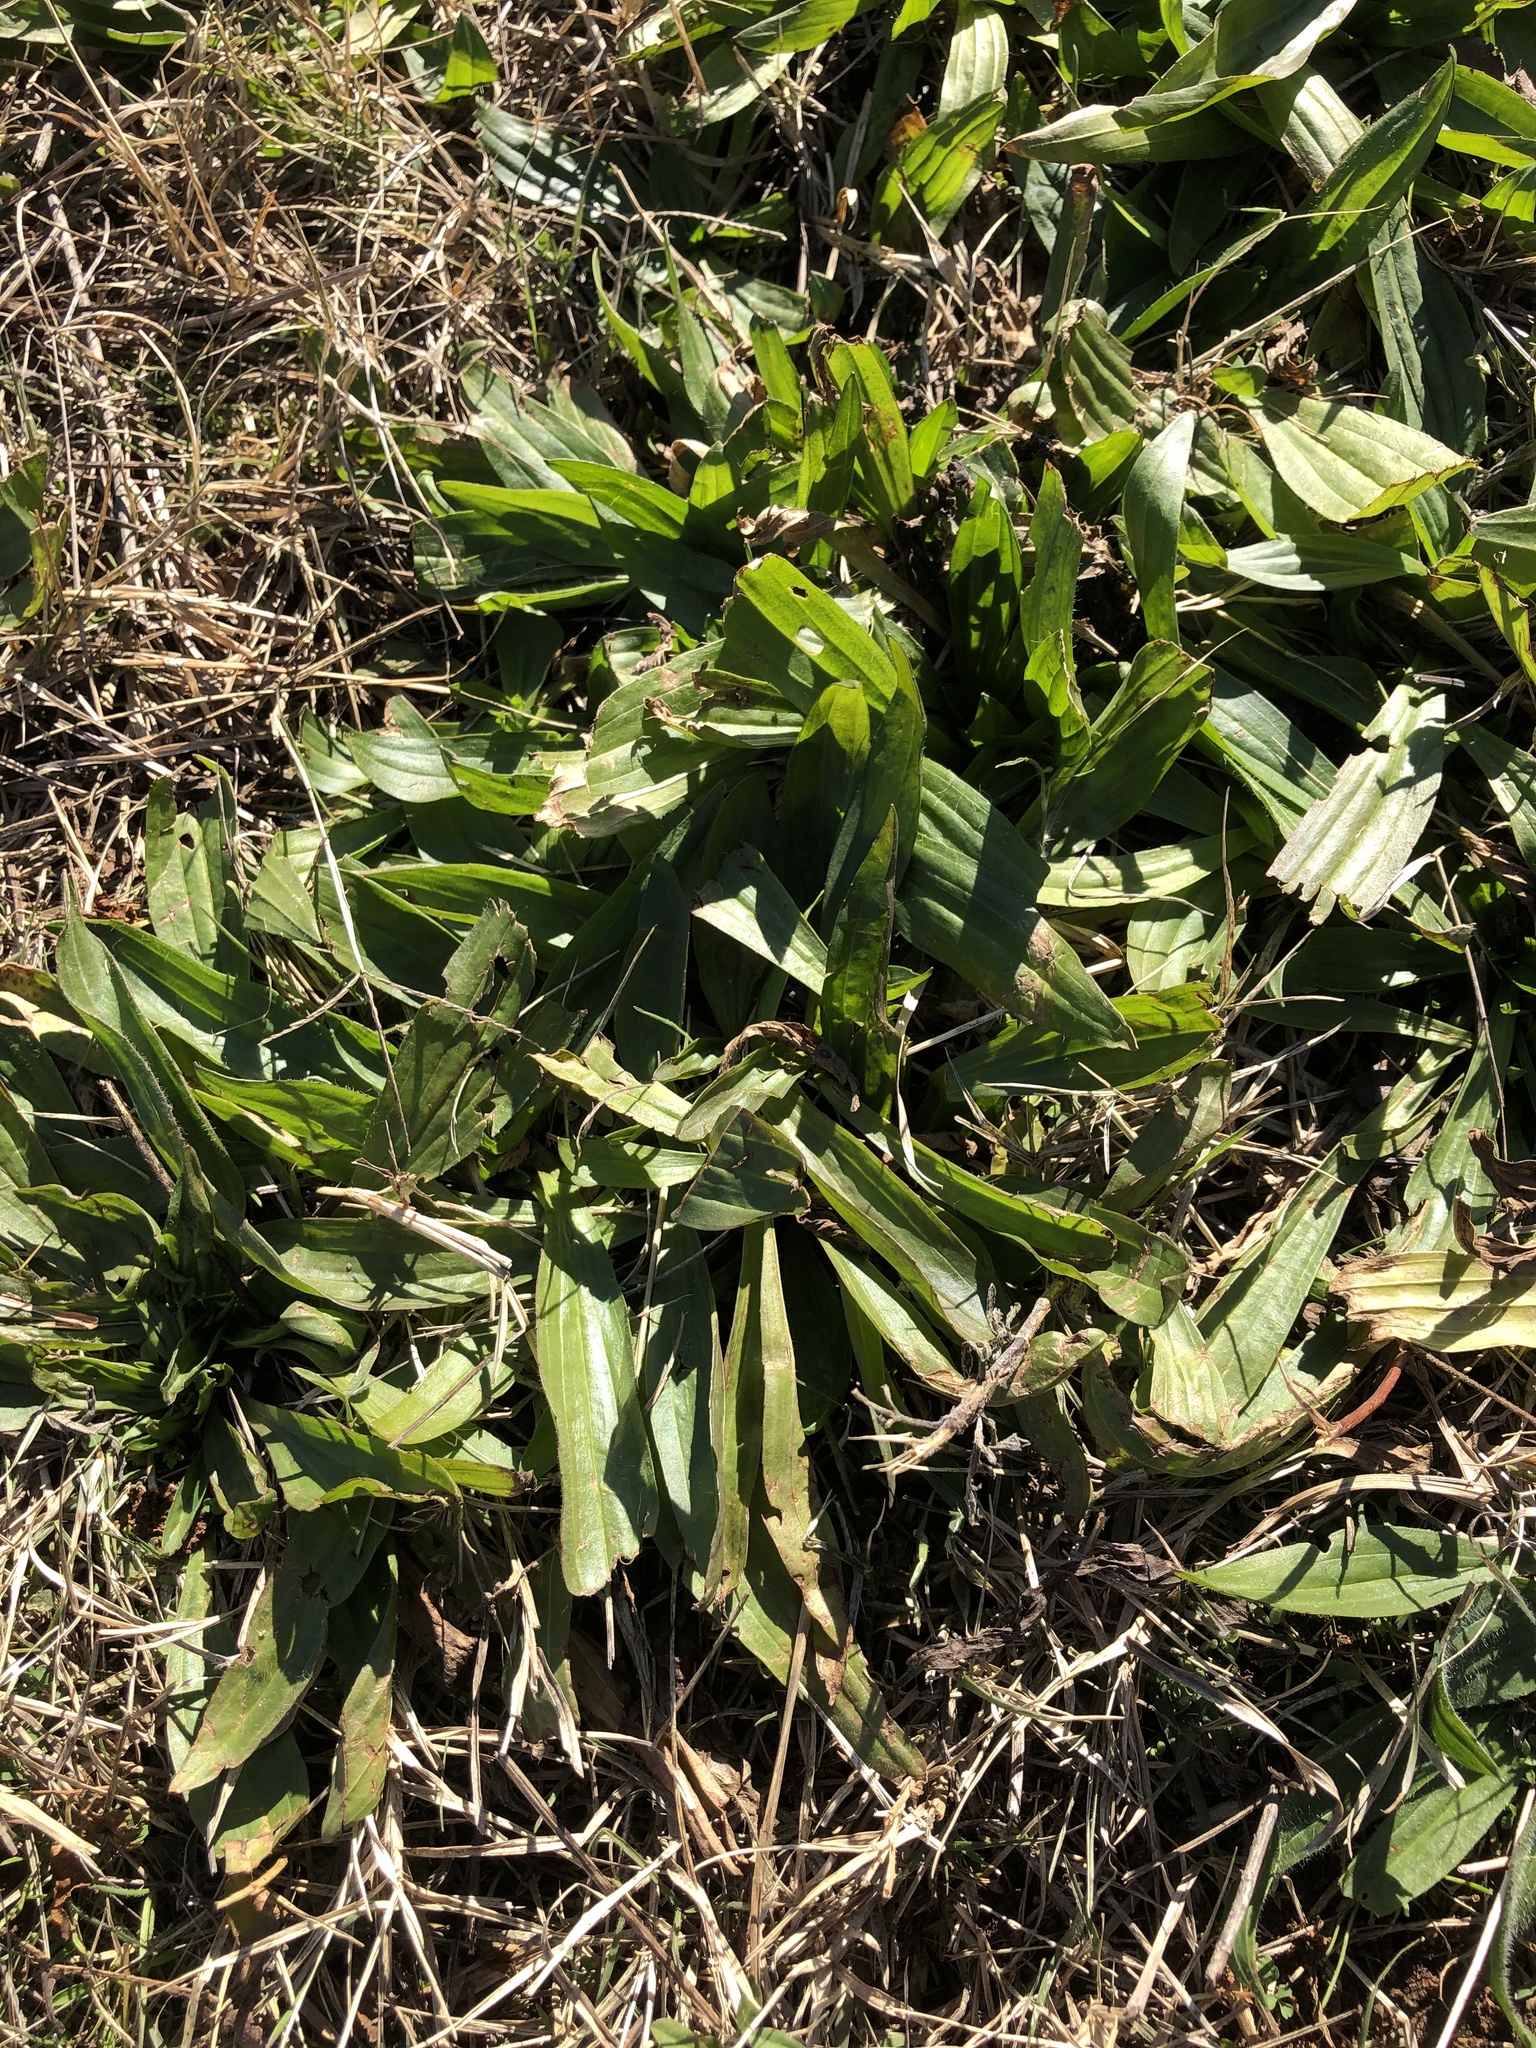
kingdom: Plantae
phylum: Tracheophyta
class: Magnoliopsida
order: Lamiales
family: Plantaginaceae
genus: Plantago
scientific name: Plantago lanceolata
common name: Ribwort plantain
